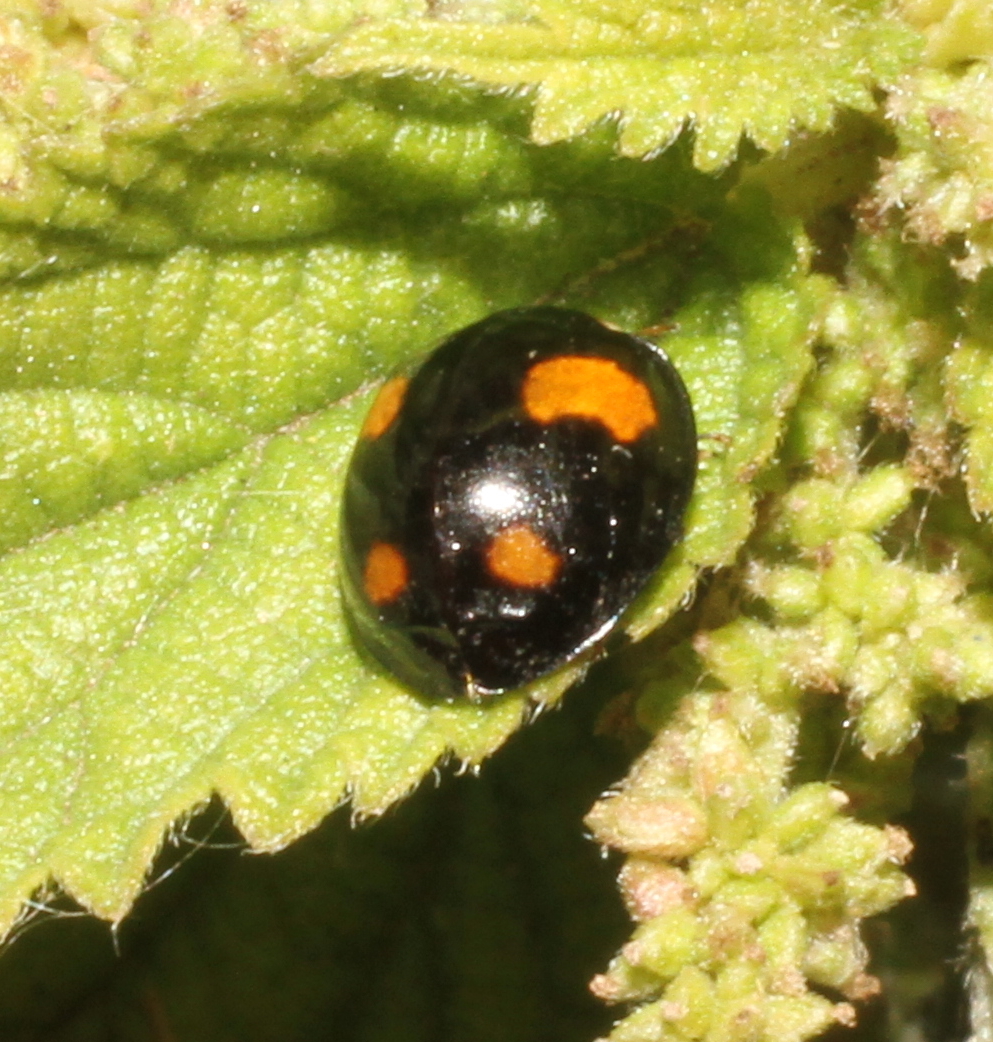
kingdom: Animalia
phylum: Arthropoda
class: Insecta
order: Coleoptera
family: Coccinellidae
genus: Harmonia
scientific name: Harmonia axyridis
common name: Harlequin ladybird
